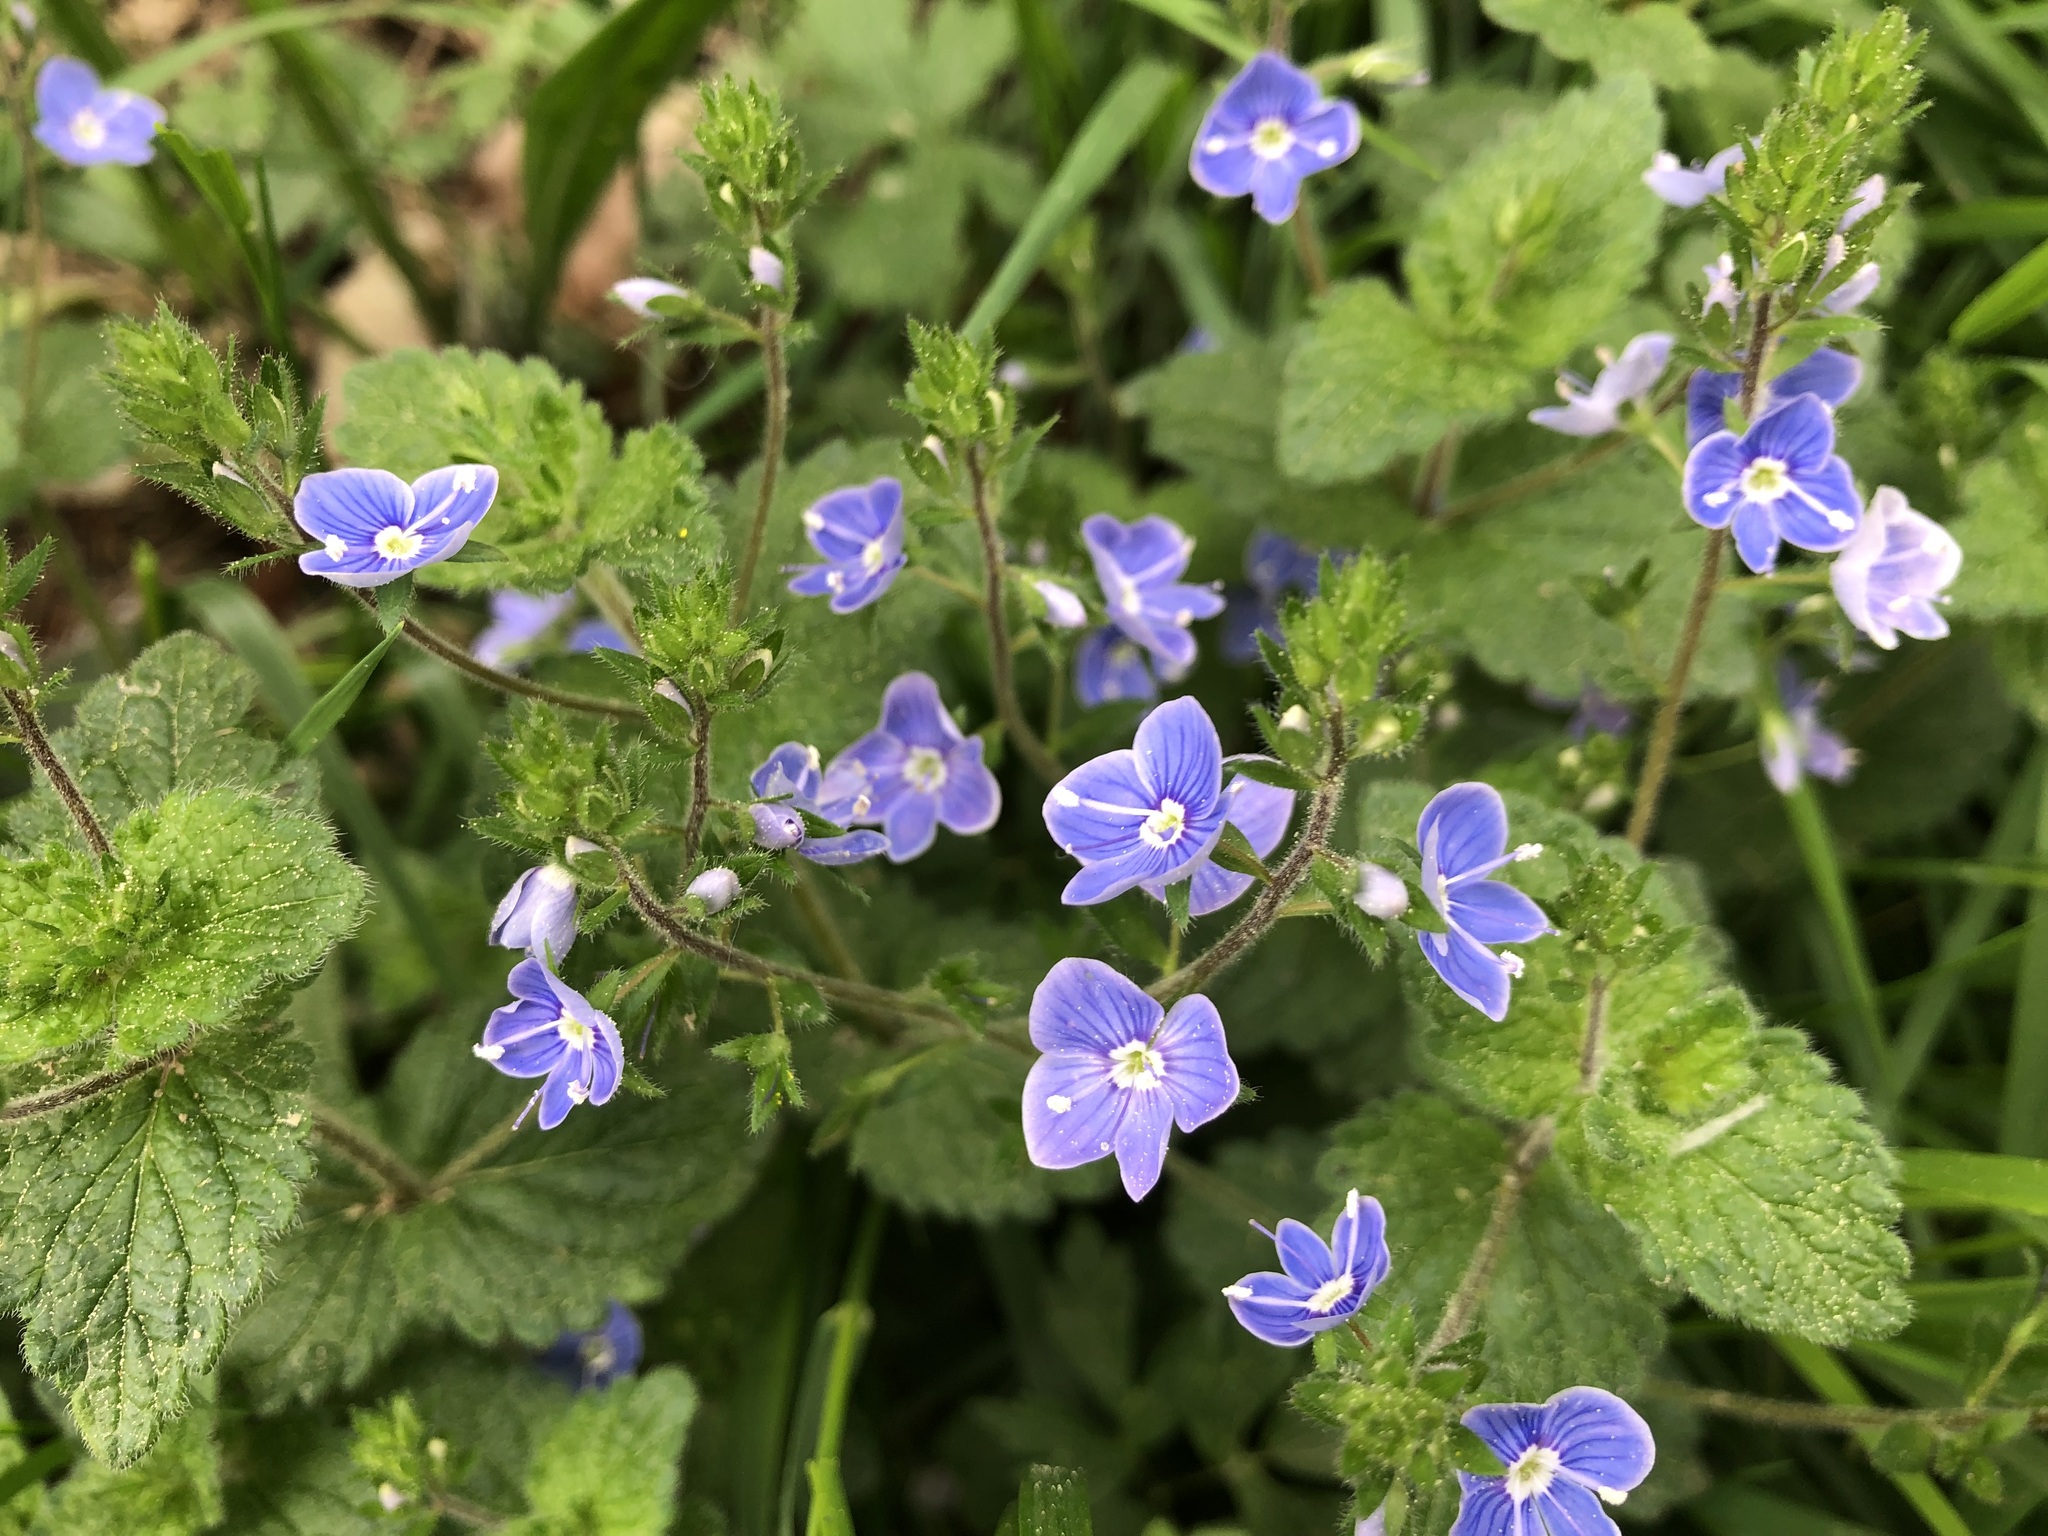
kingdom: Plantae
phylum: Tracheophyta
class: Magnoliopsida
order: Lamiales
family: Plantaginaceae
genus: Veronica
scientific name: Veronica chamaedrys
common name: Germander speedwell
